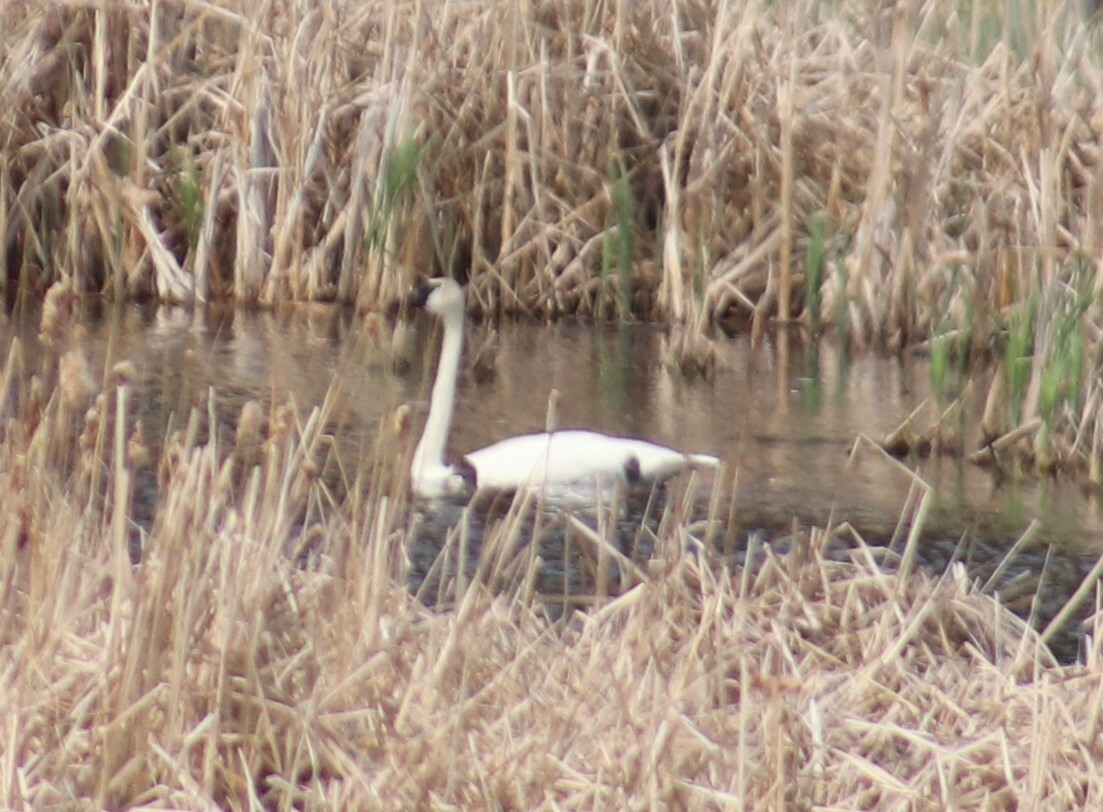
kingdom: Animalia
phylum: Chordata
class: Aves
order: Anseriformes
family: Anatidae
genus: Cygnus
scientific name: Cygnus buccinator
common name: Trumpeter swan
